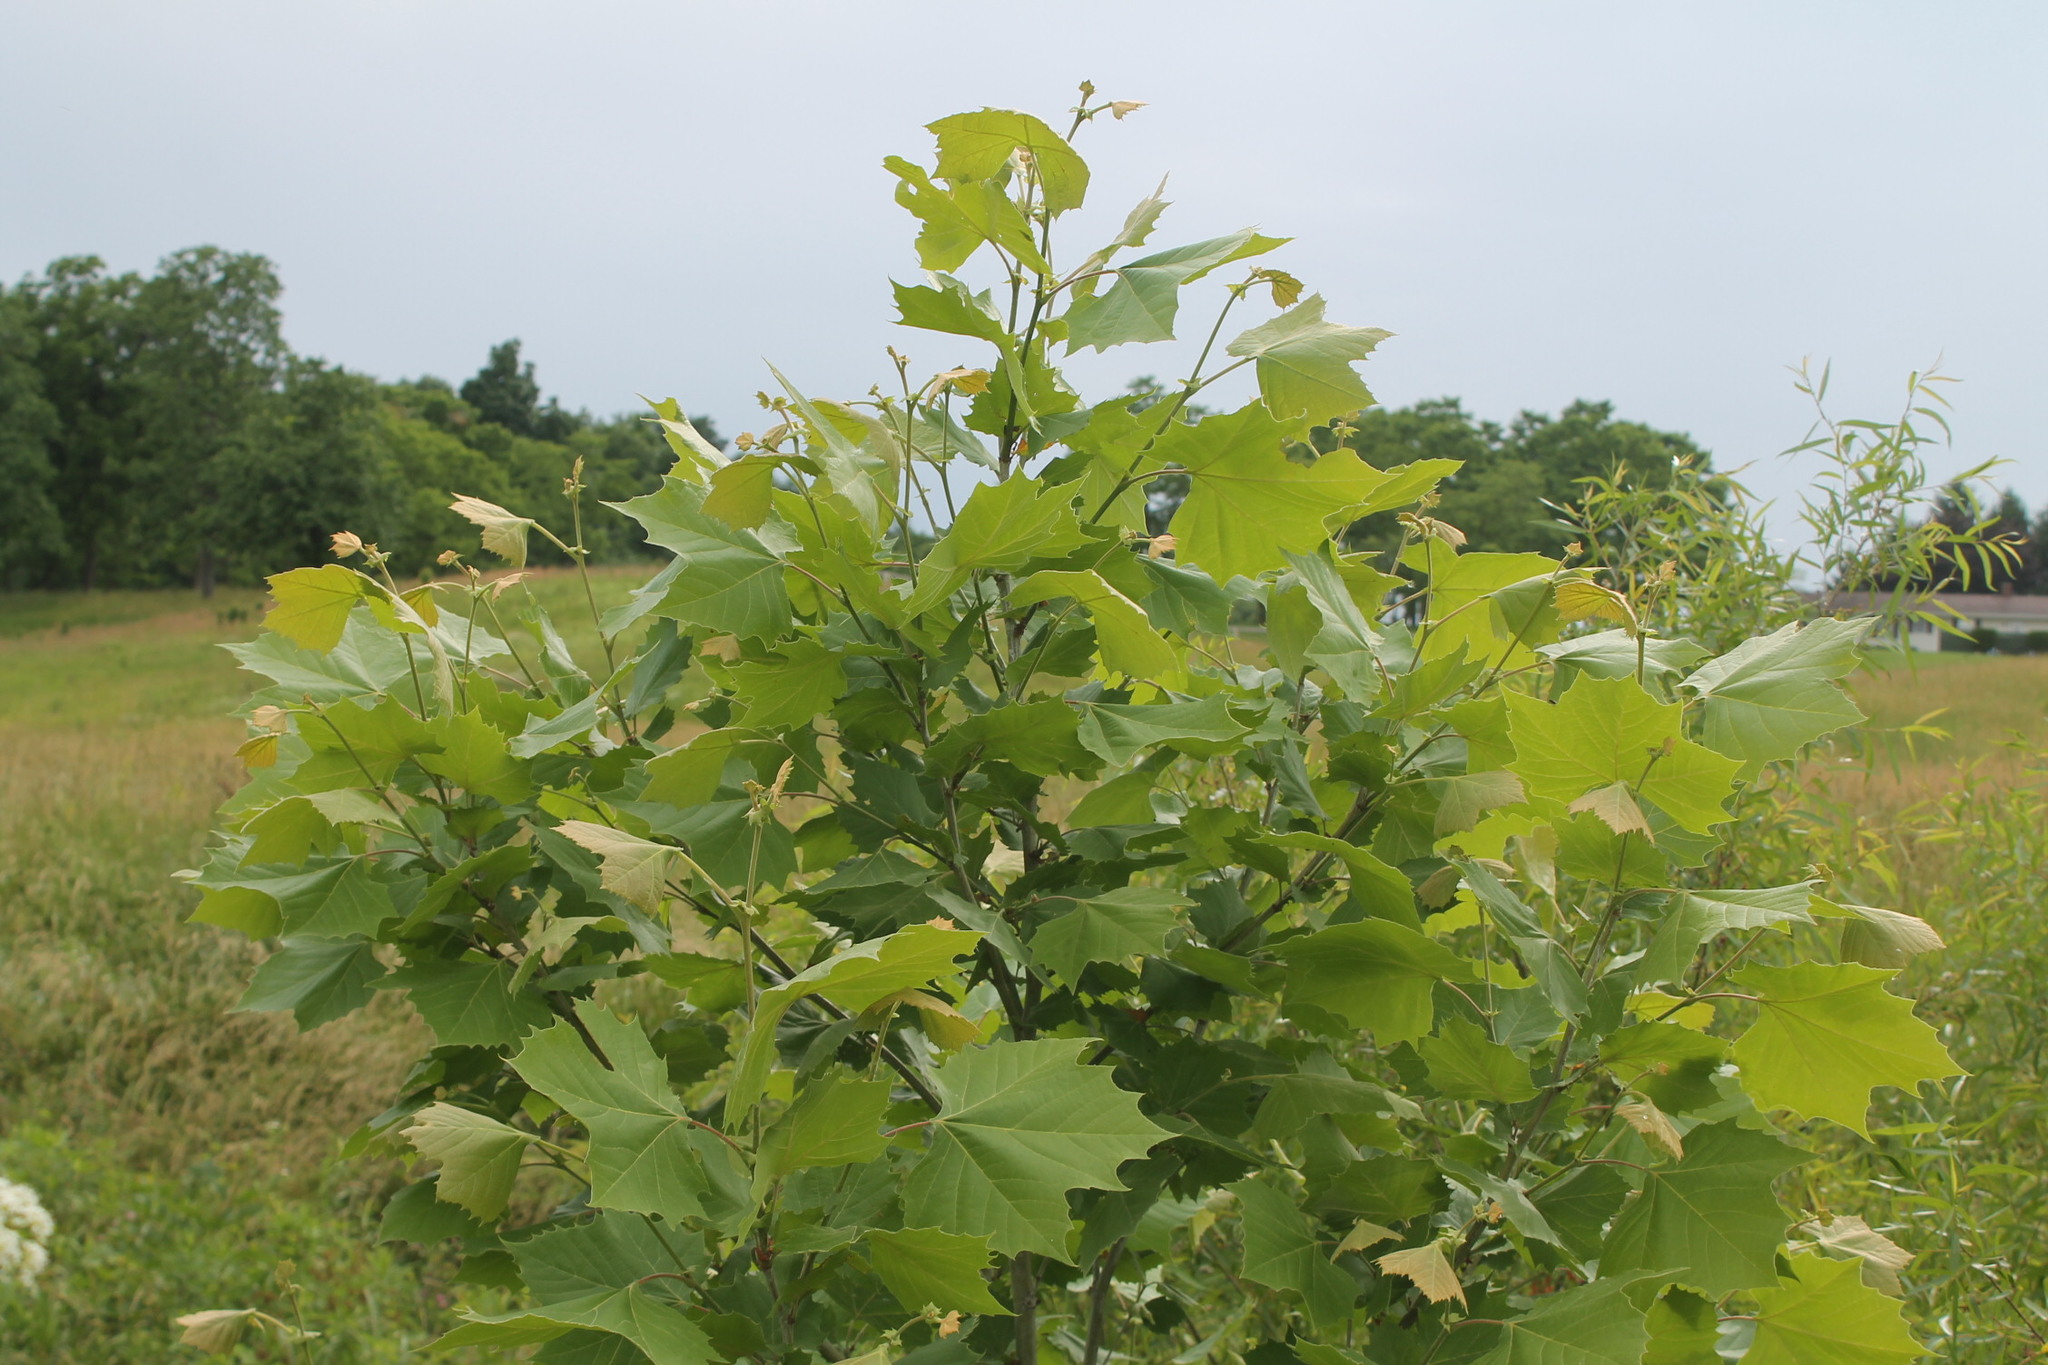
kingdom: Plantae
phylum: Tracheophyta
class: Magnoliopsida
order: Proteales
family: Platanaceae
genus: Platanus
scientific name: Platanus occidentalis
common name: American sycamore
